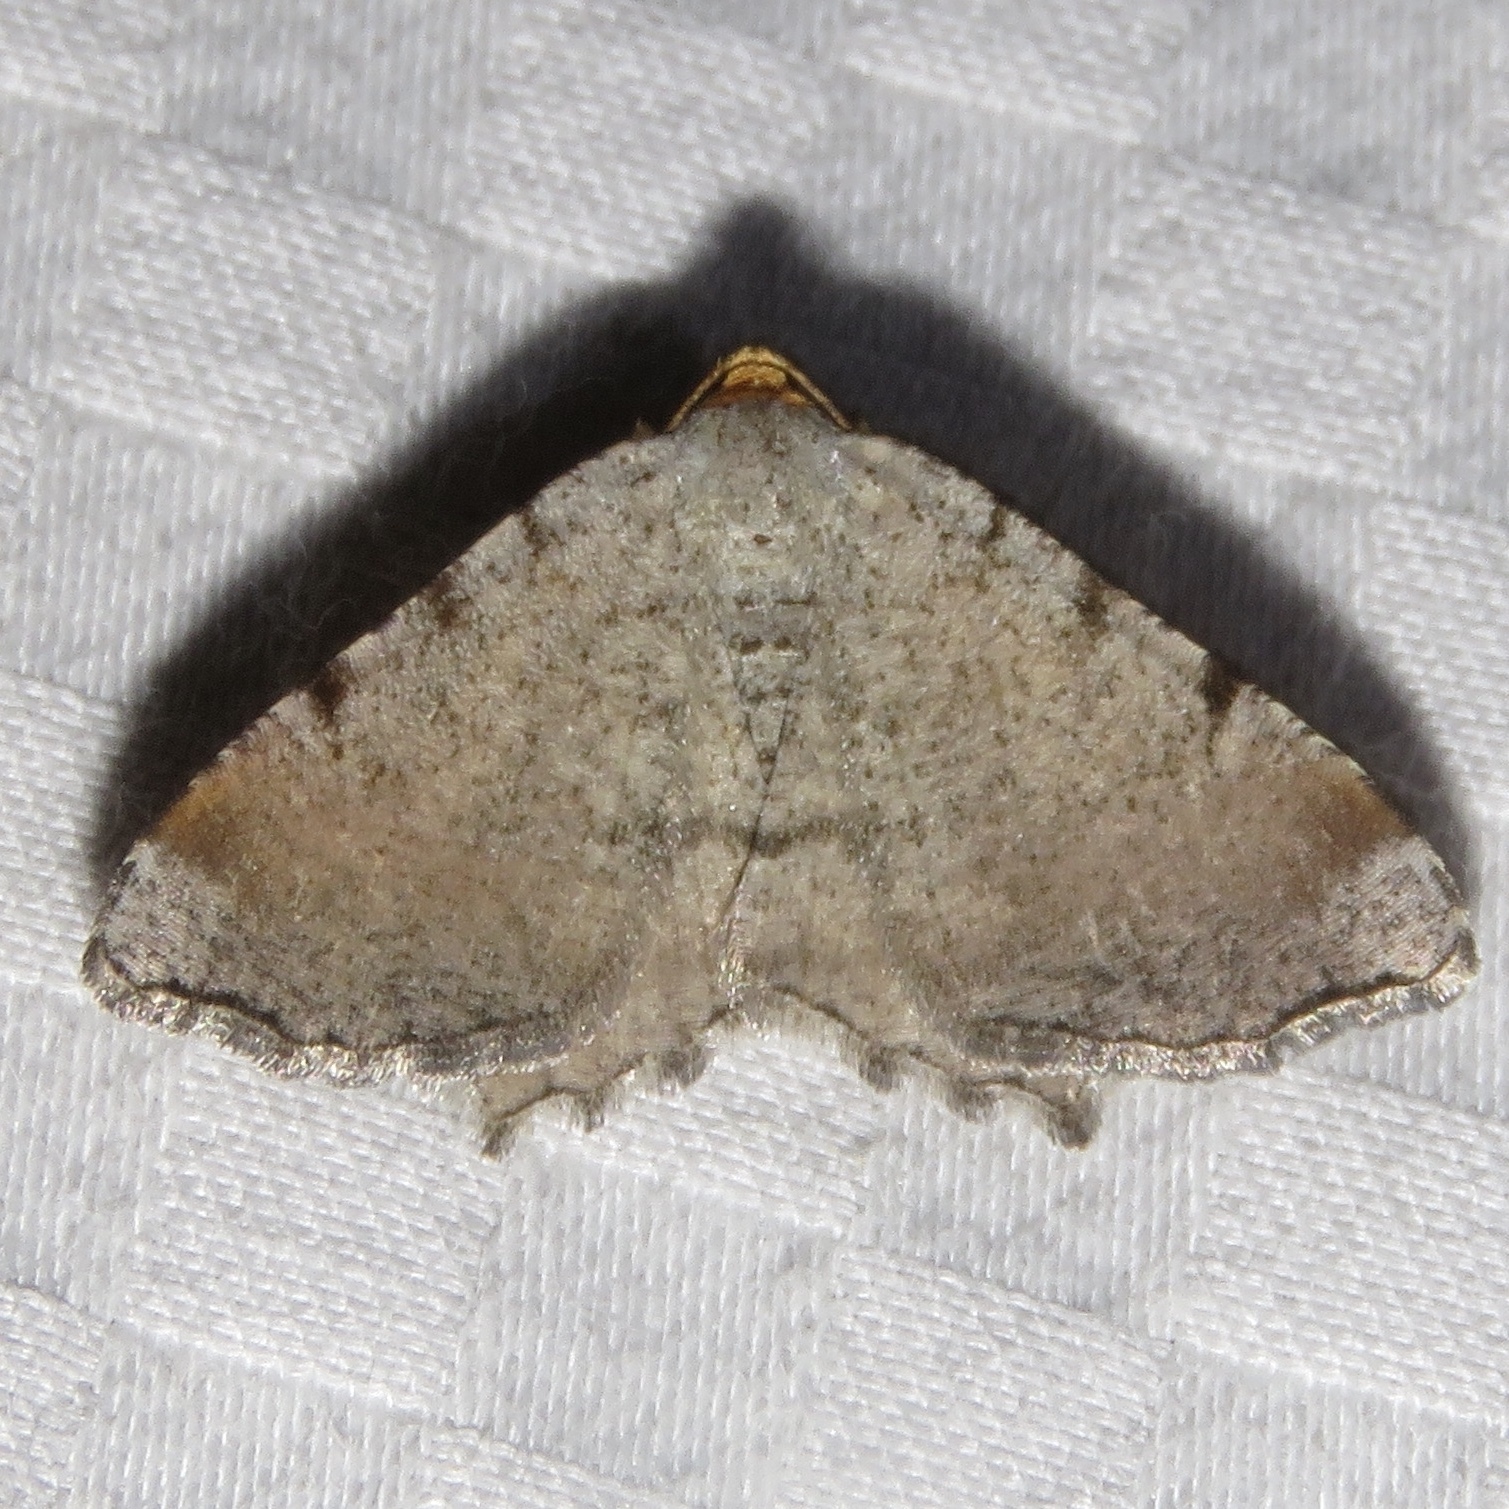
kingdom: Animalia
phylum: Arthropoda
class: Insecta
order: Lepidoptera
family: Geometridae
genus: Macaria
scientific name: Macaria minorata
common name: Minor angle moth
